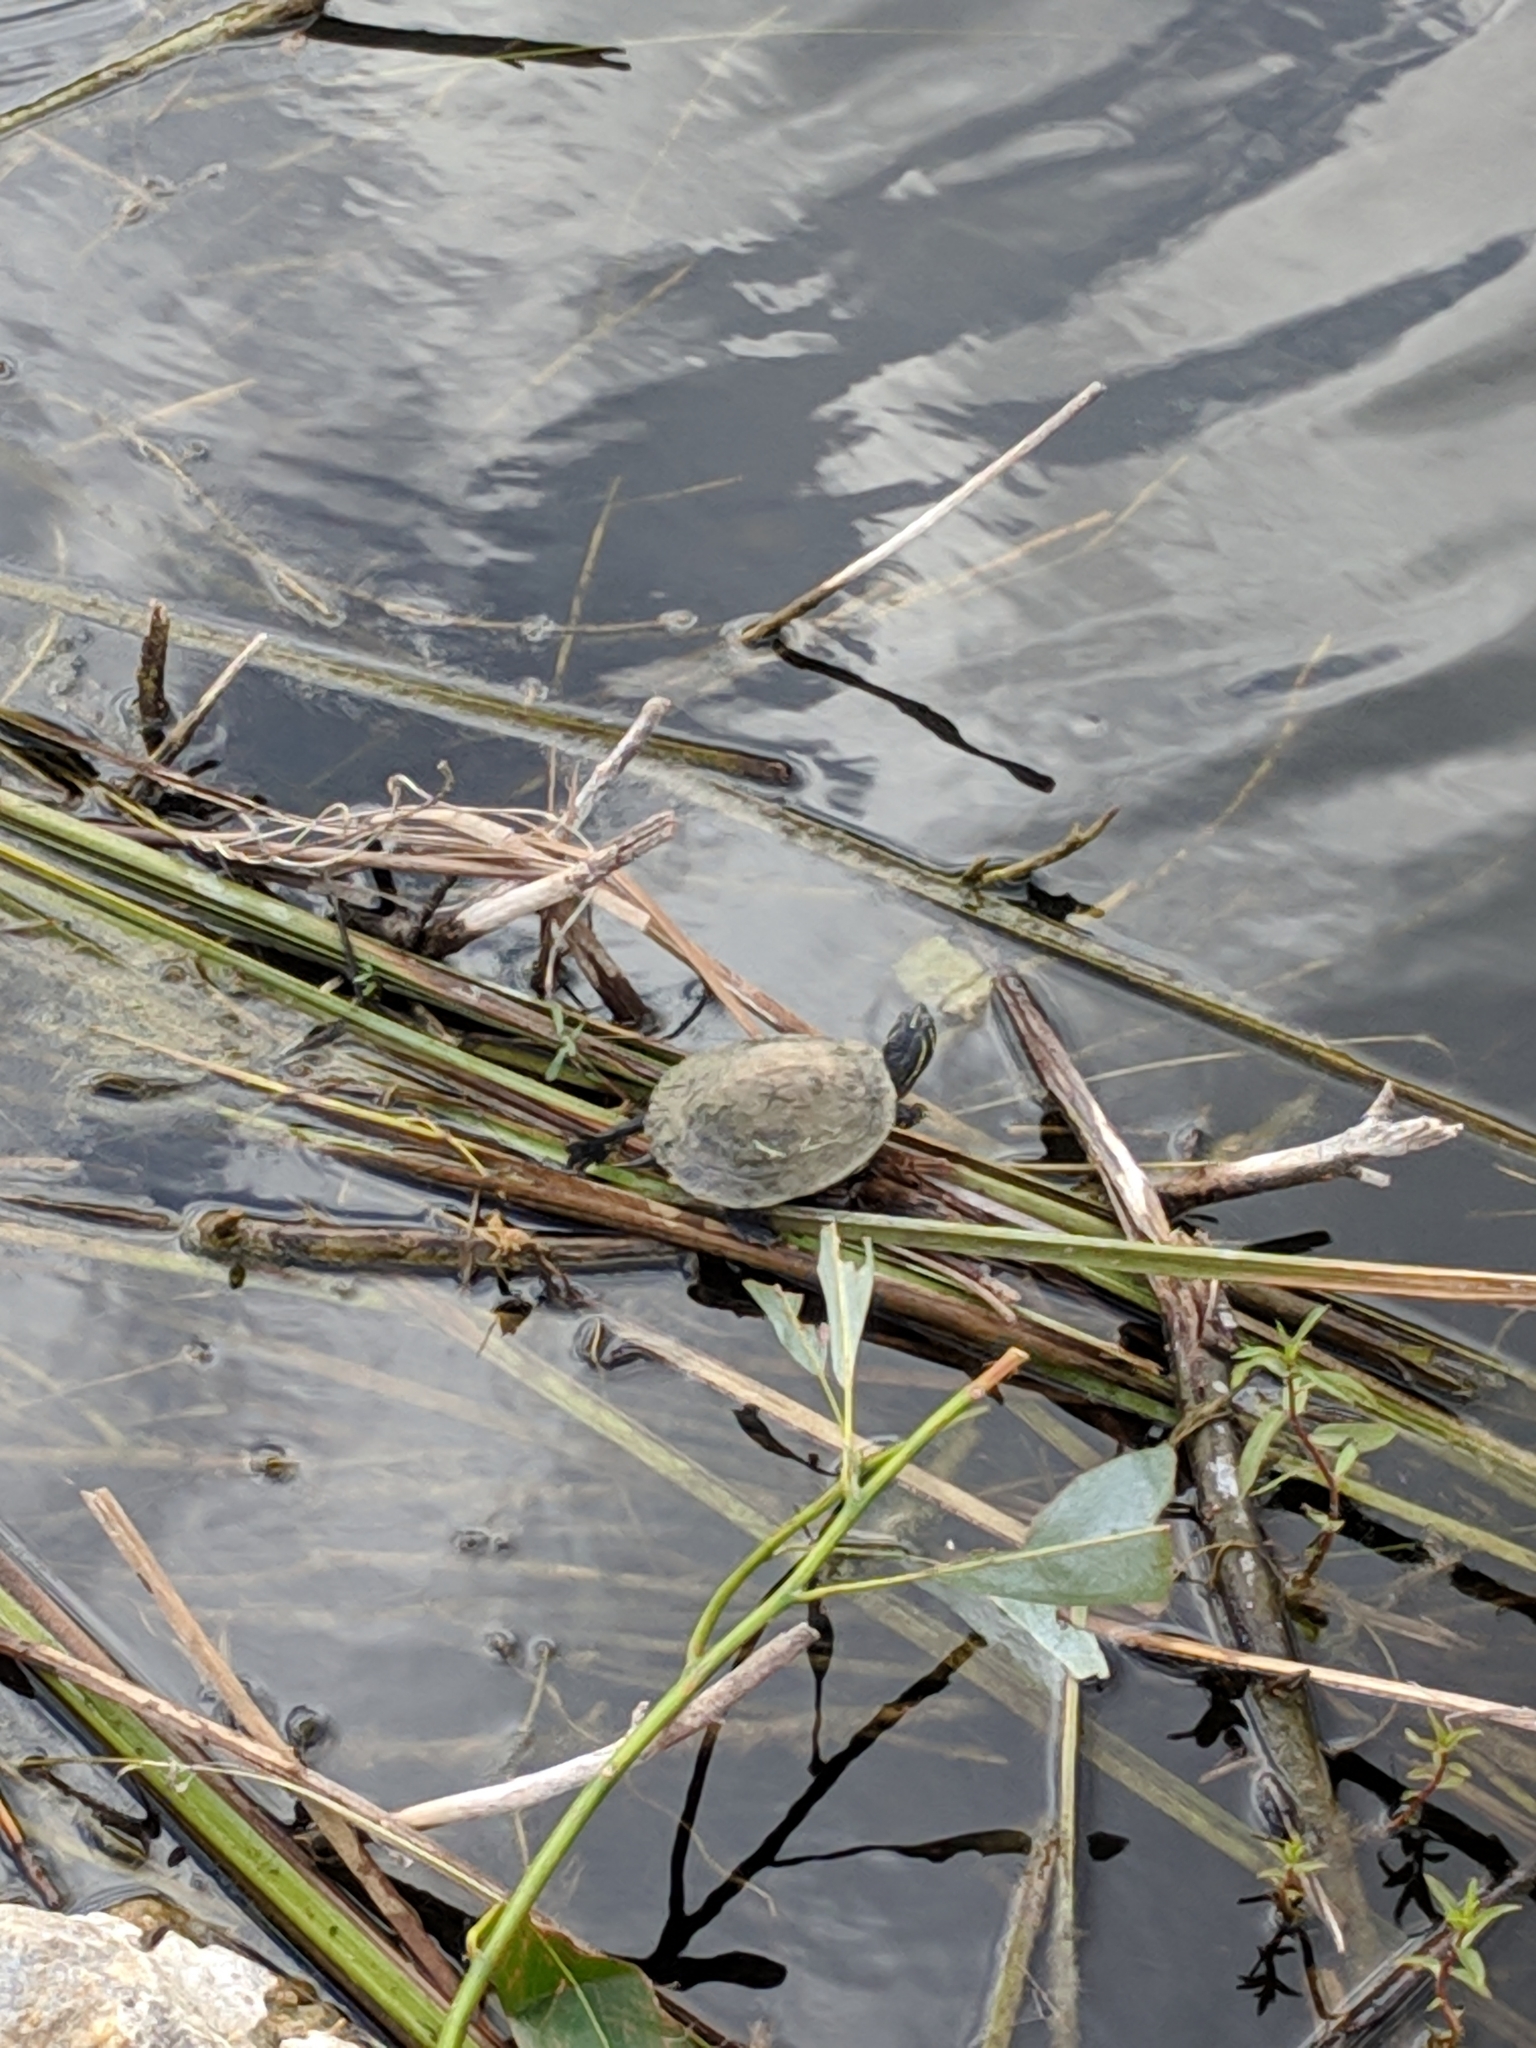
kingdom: Animalia
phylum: Chordata
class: Testudines
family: Emydidae
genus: Pseudemys
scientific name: Pseudemys peninsularis
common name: Peninsula cooter
